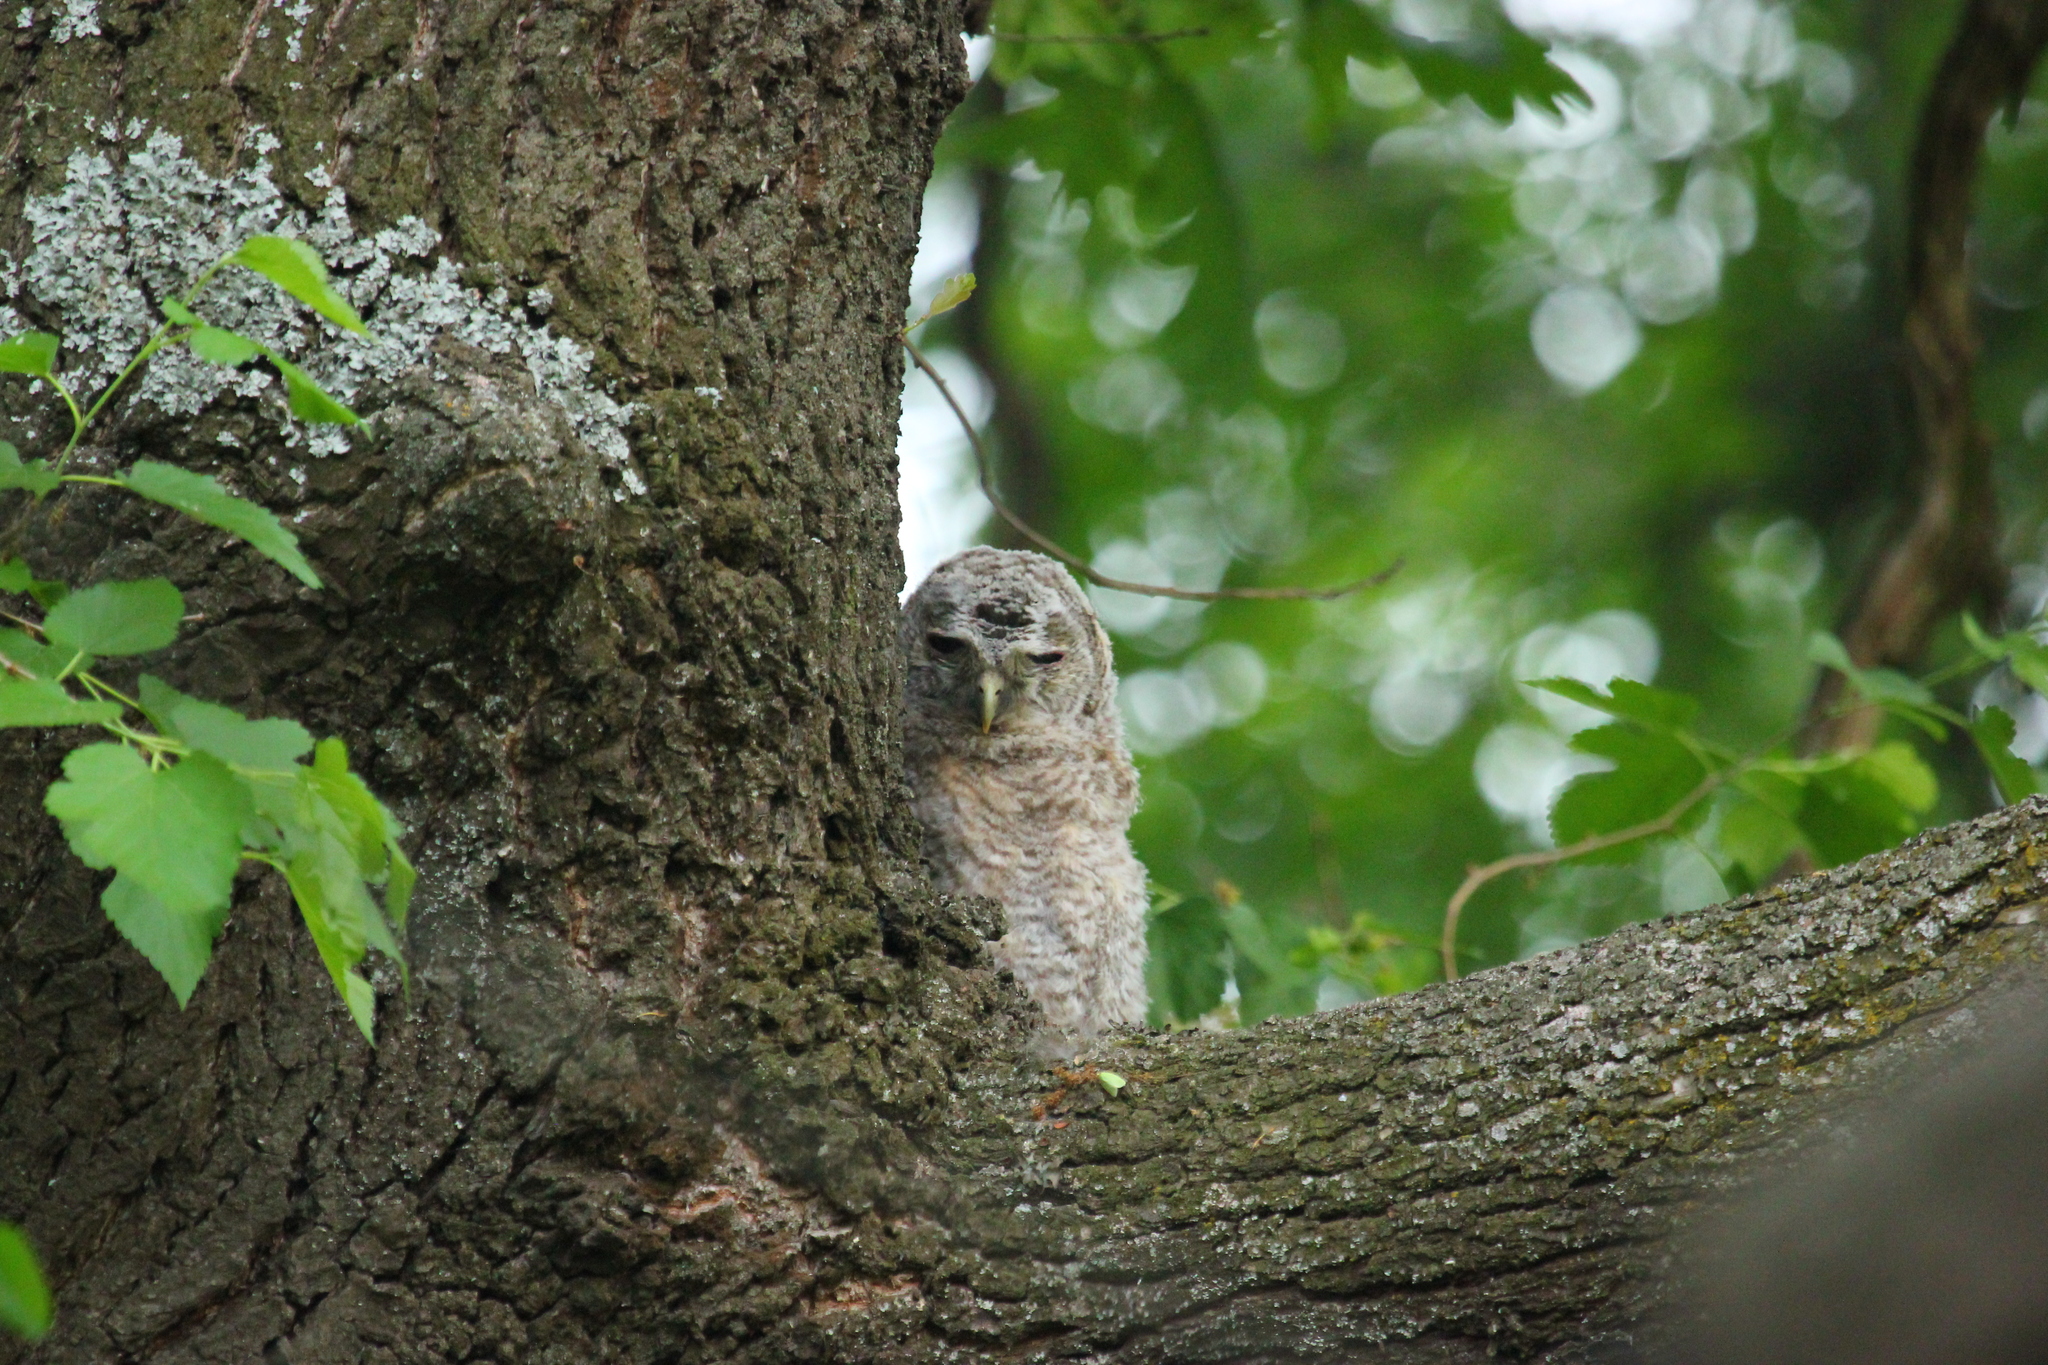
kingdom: Animalia
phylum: Chordata
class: Aves
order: Strigiformes
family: Strigidae
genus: Strix
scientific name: Strix aluco
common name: Tawny owl
